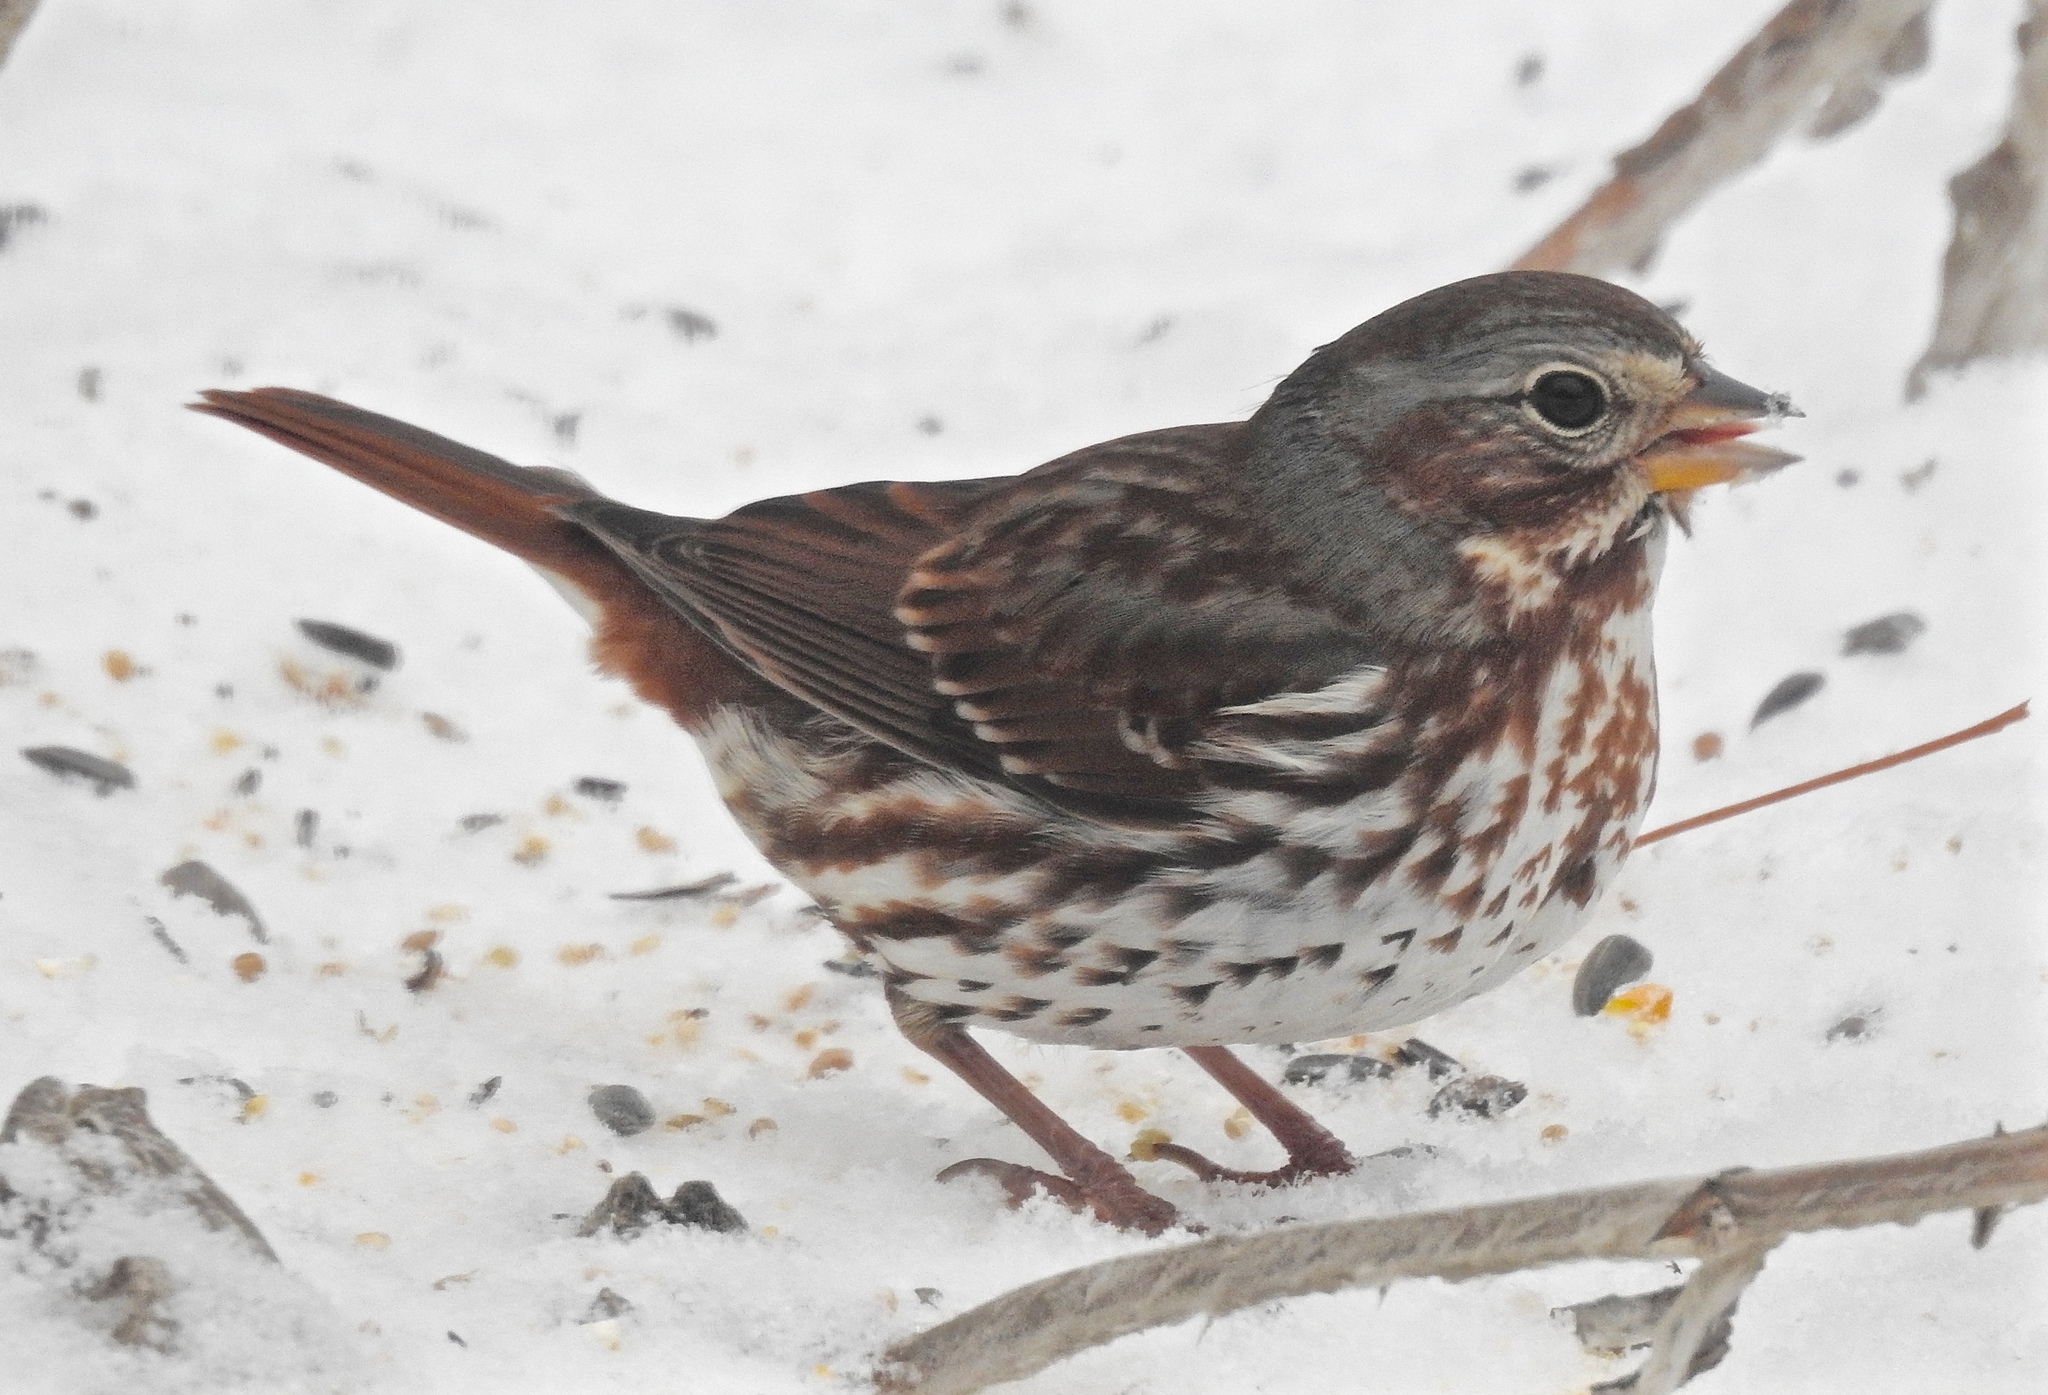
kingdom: Animalia
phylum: Chordata
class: Aves
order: Passeriformes
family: Passerellidae
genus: Passerella
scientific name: Passerella iliaca
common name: Fox sparrow
